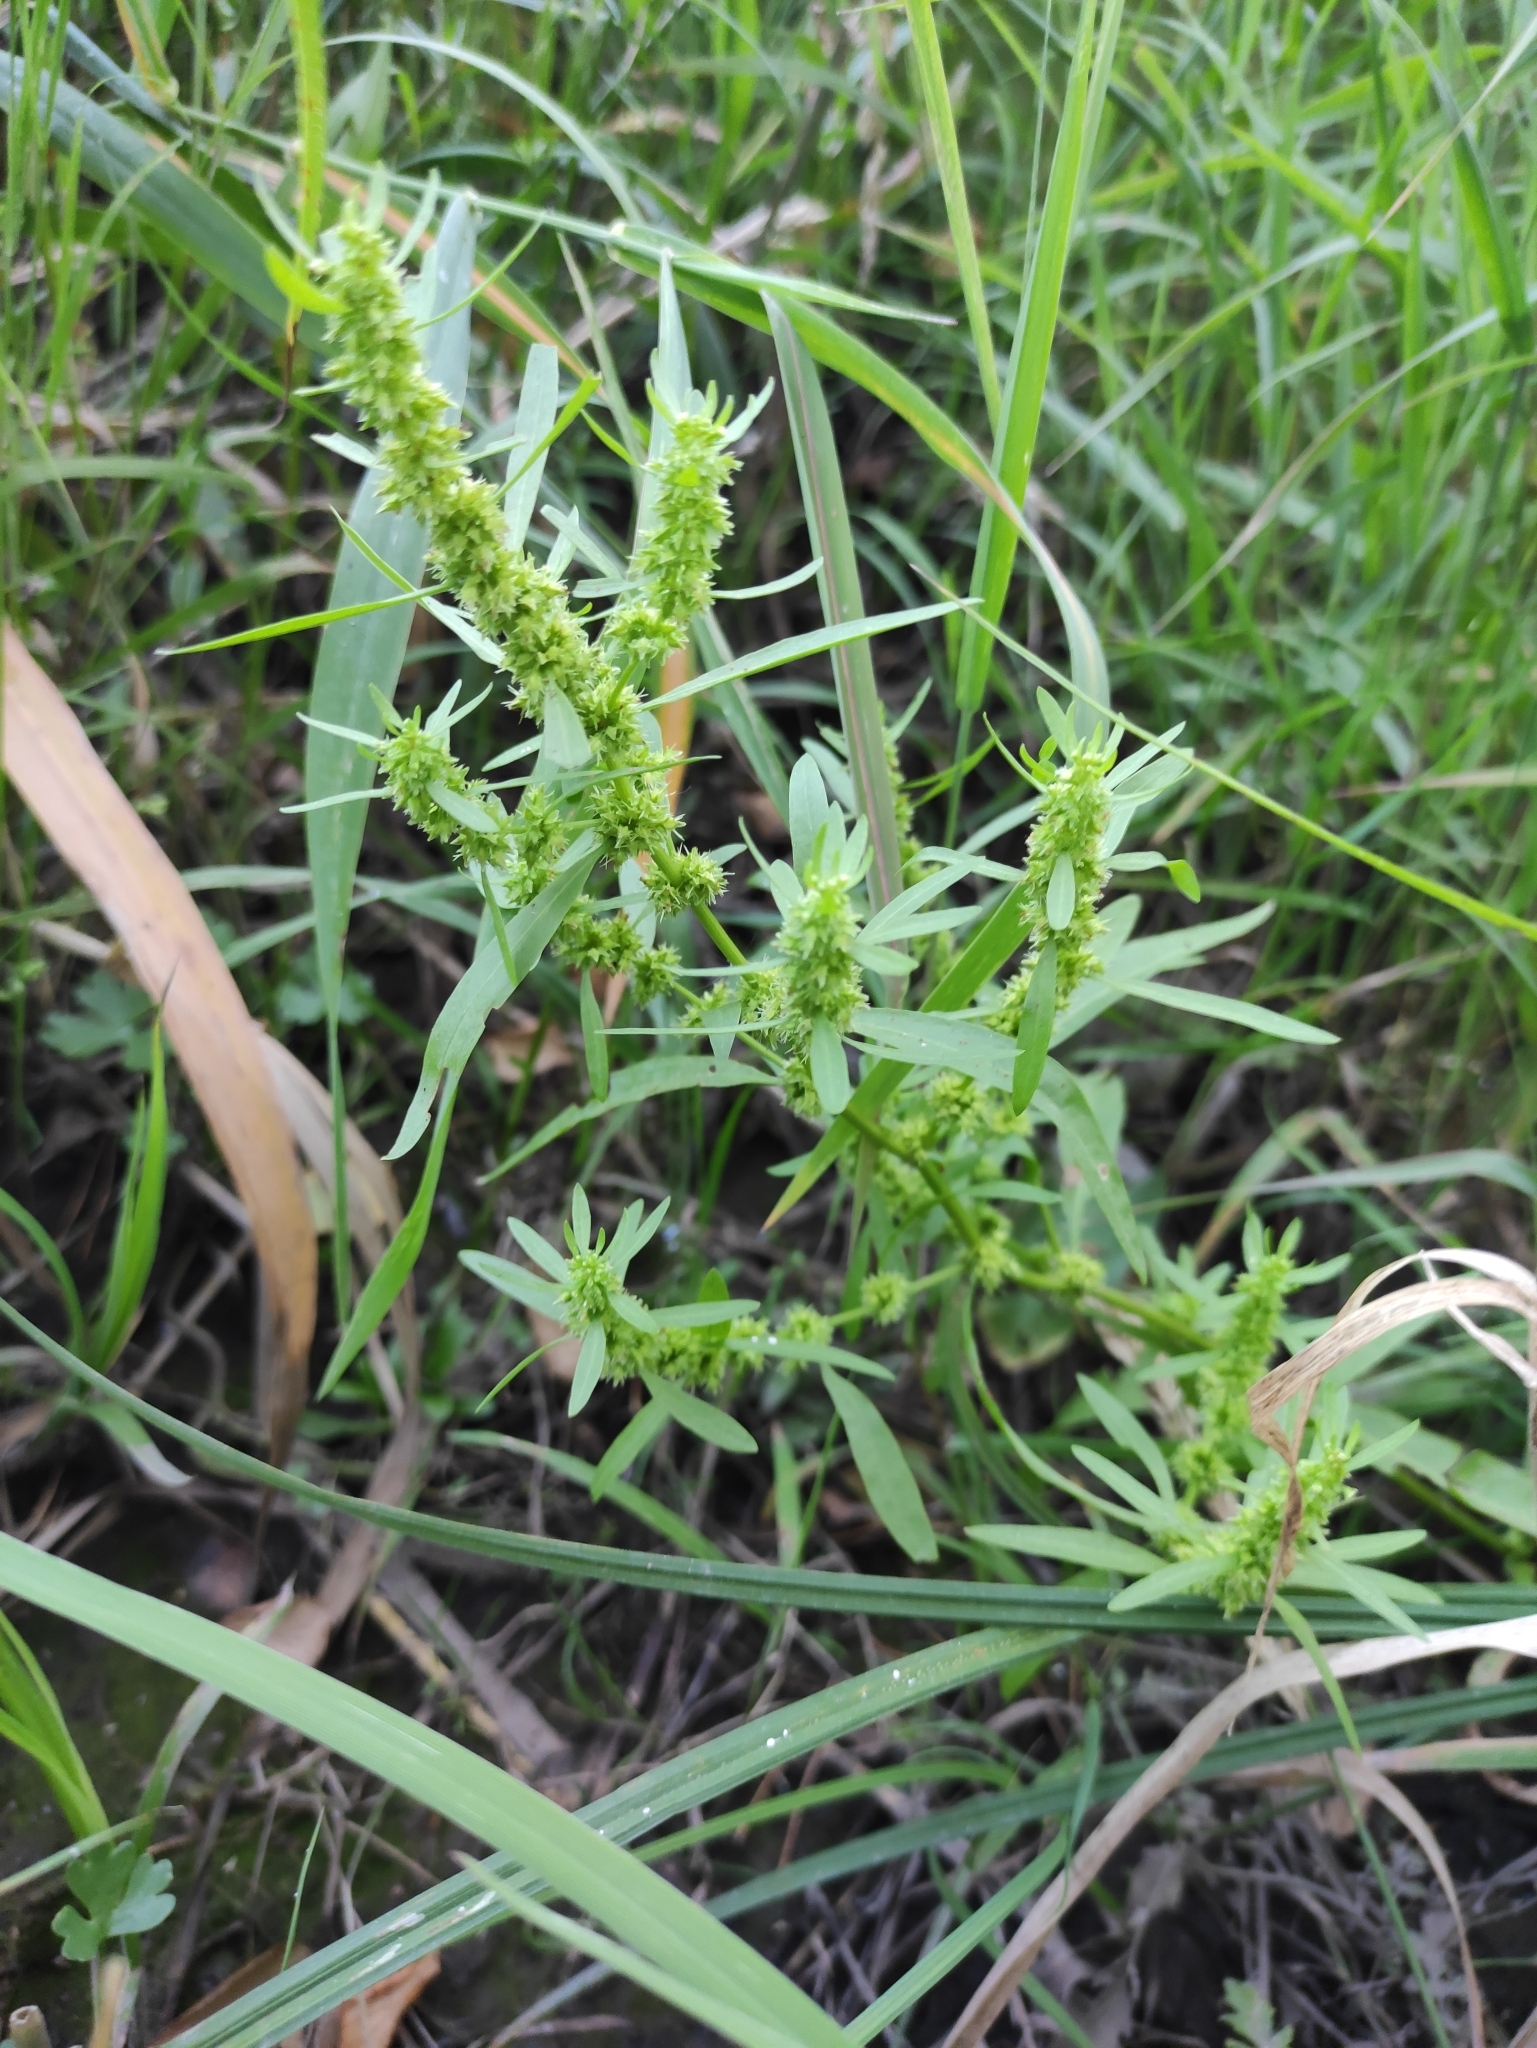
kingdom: Plantae
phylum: Tracheophyta
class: Magnoliopsida
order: Caryophyllales
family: Polygonaceae
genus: Rumex
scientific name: Rumex maritimus
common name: Golden dock
